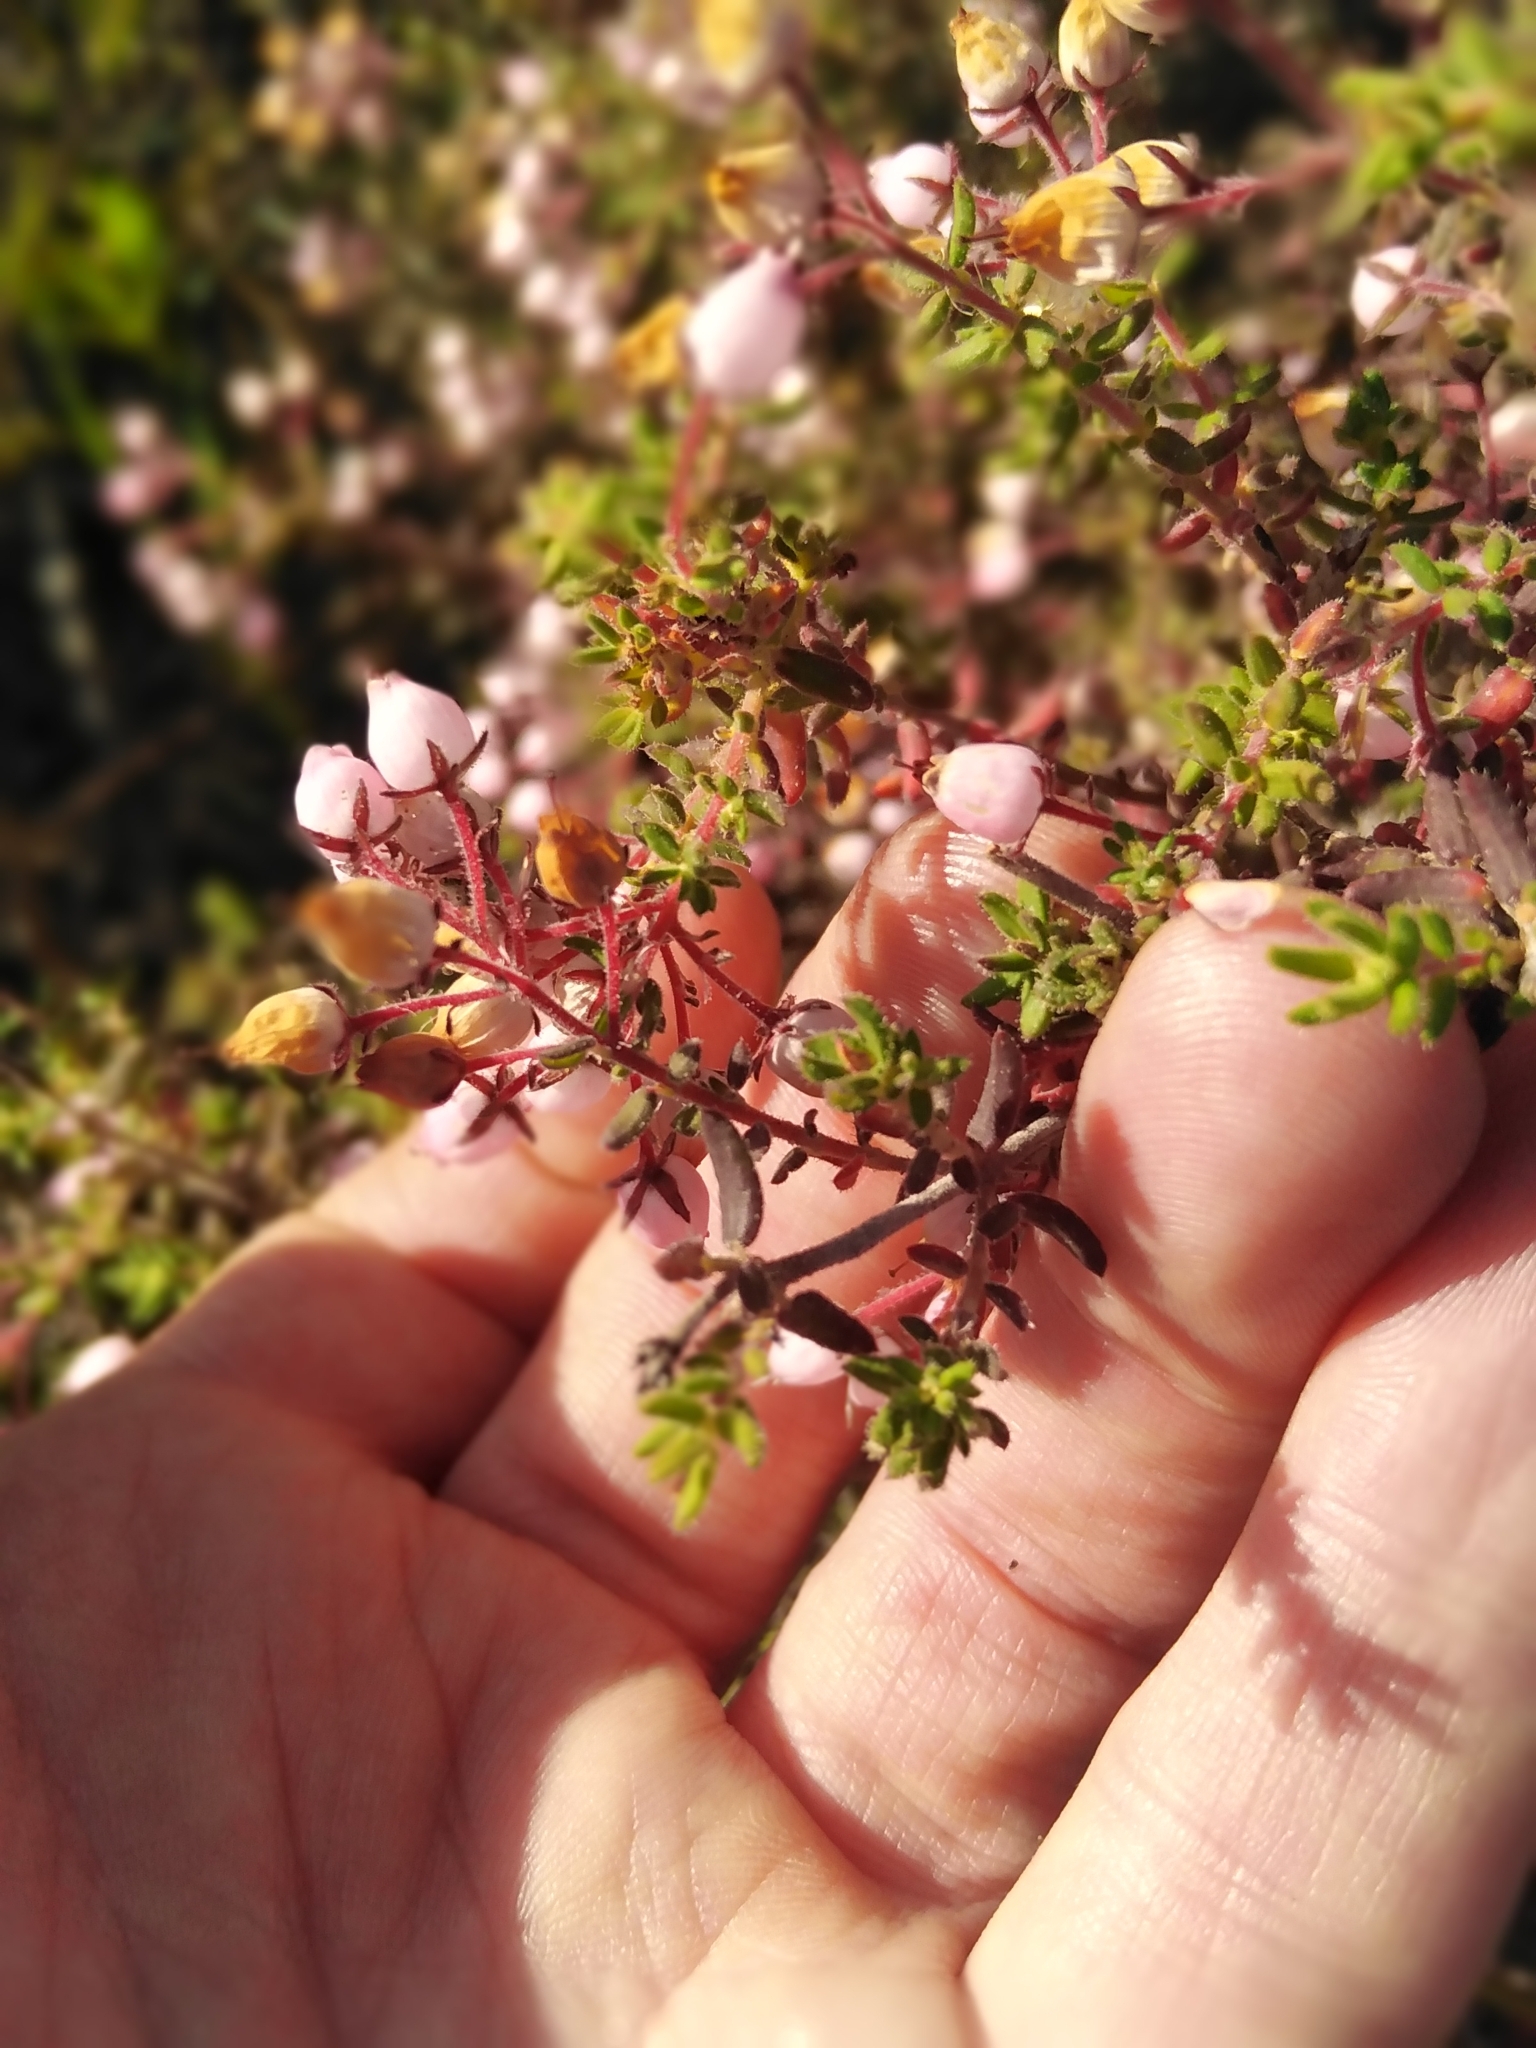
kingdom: Plantae
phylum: Tracheophyta
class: Magnoliopsida
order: Ericales
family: Ericaceae
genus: Erica
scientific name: Erica hirta
